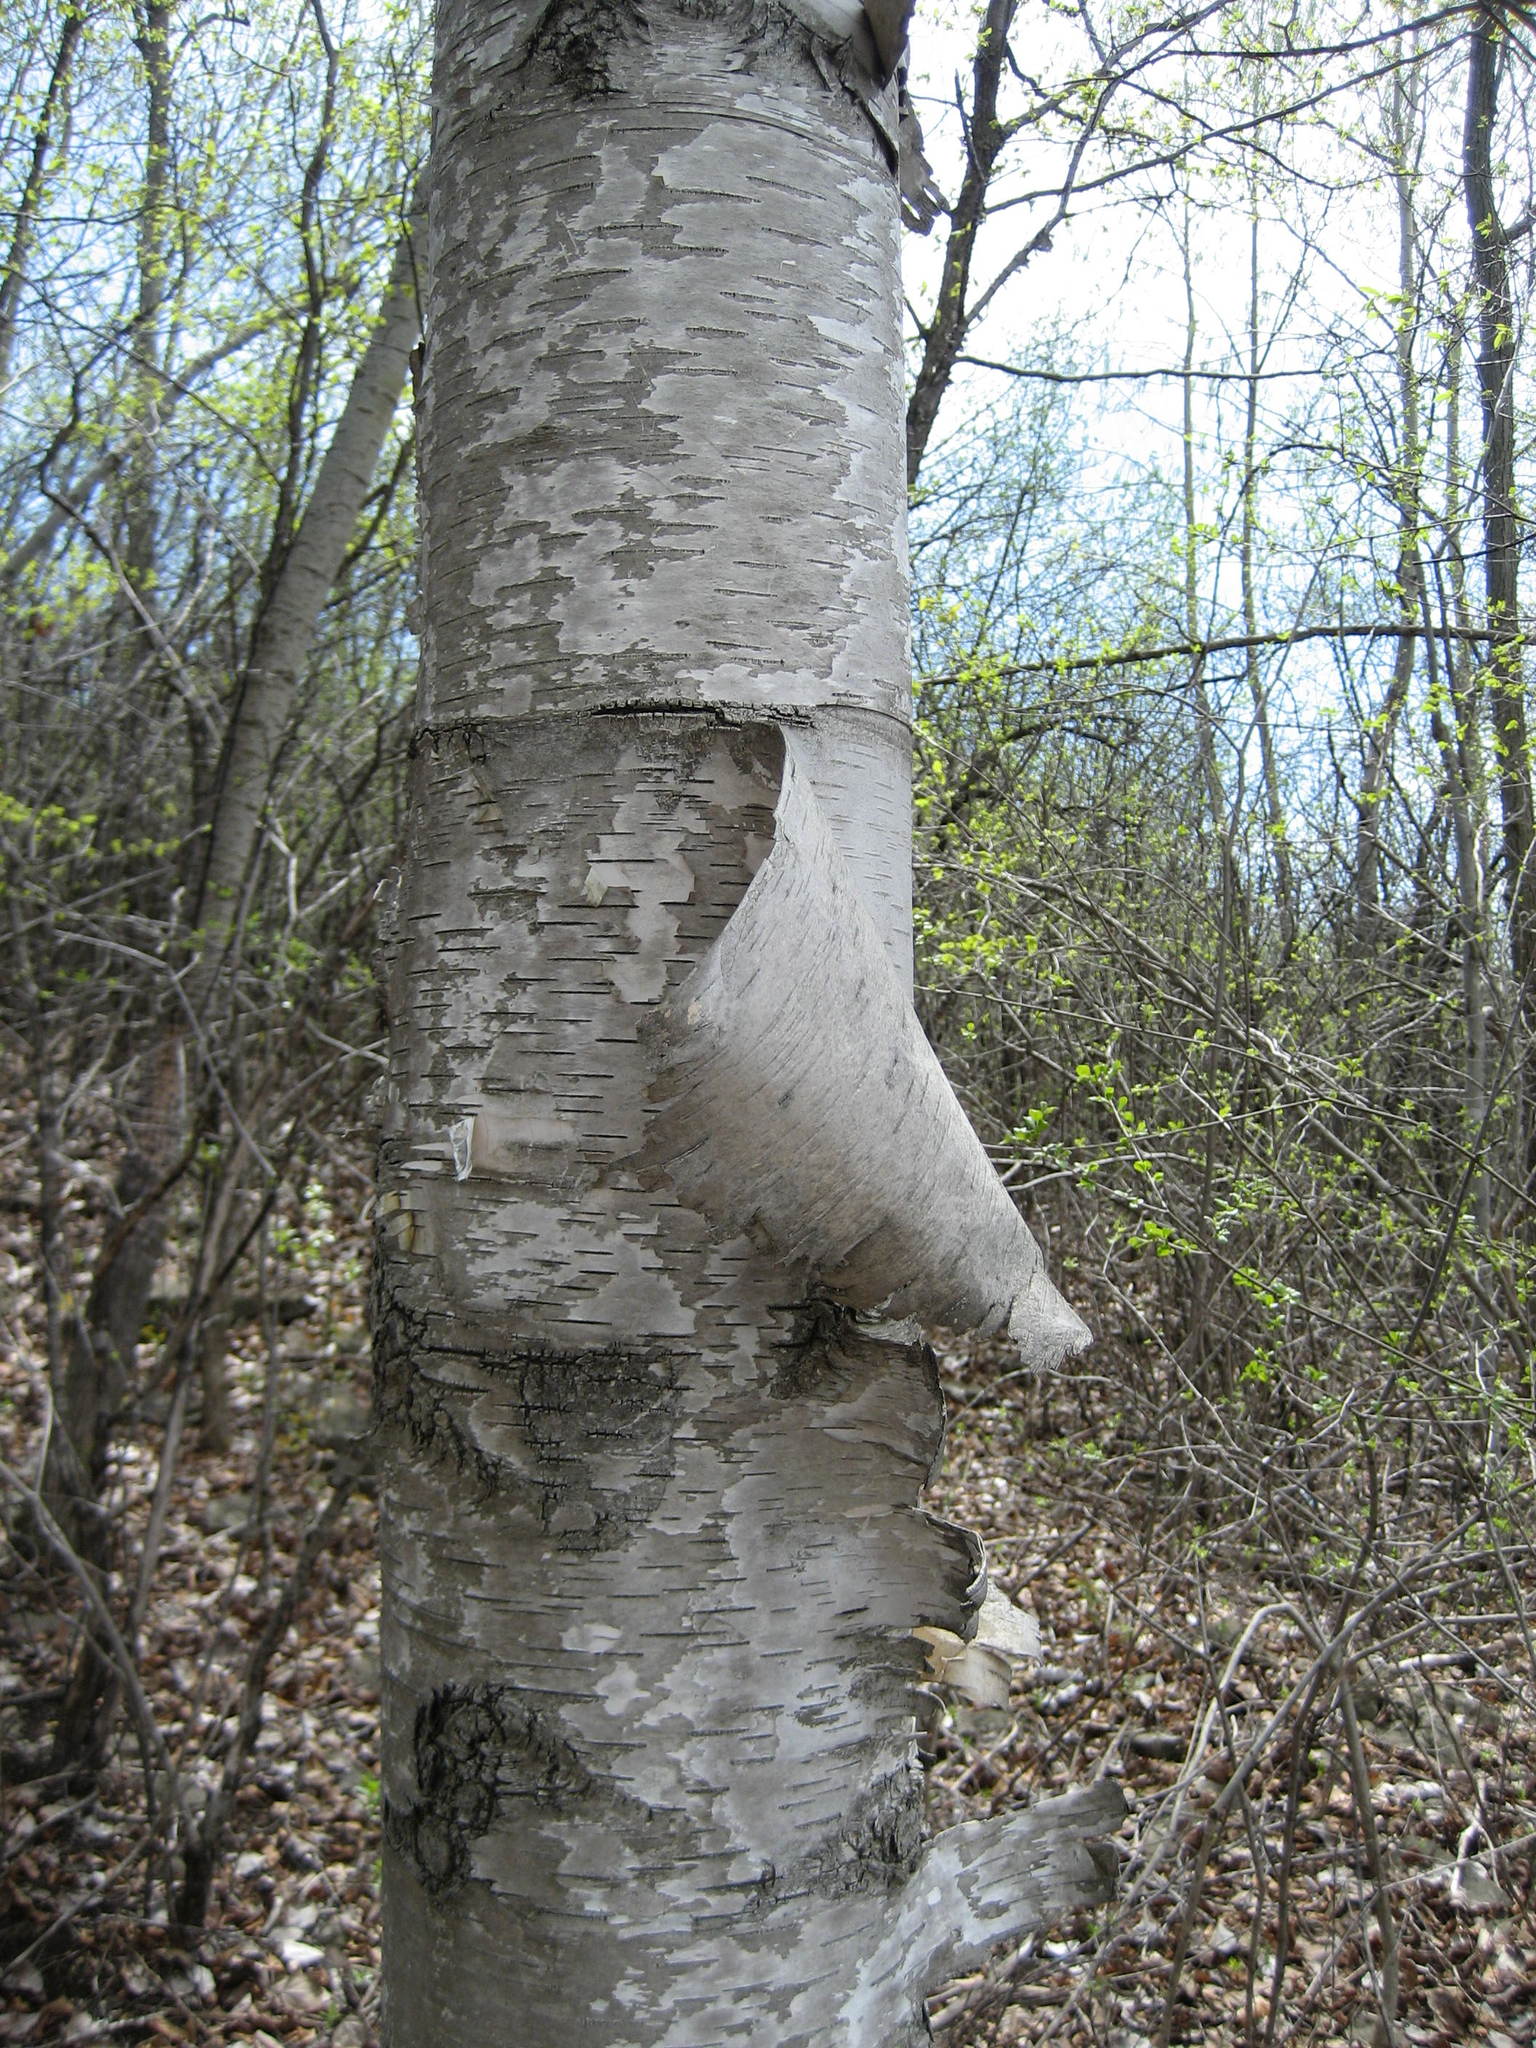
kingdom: Plantae
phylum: Tracheophyta
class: Magnoliopsida
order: Fagales
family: Betulaceae
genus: Betula
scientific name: Betula papyrifera
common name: Paper birch
